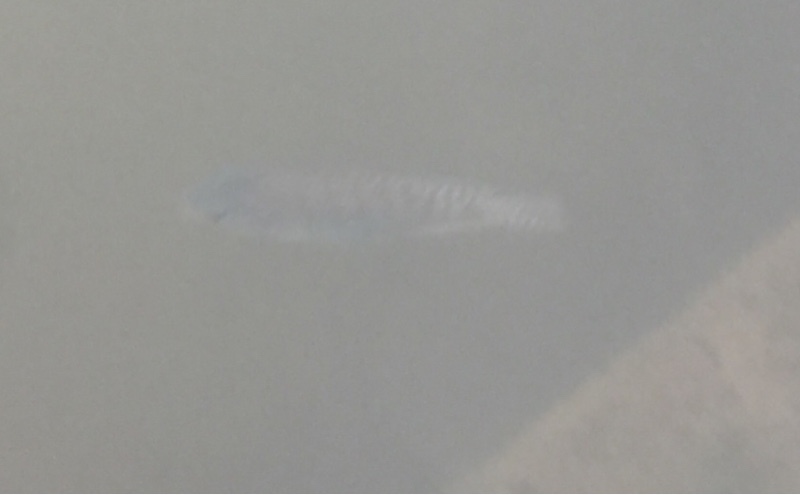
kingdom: Animalia
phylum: Chordata
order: Perciformes
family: Cichlidae
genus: Oreochromis
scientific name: Oreochromis niloticus
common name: Nile tilapia
